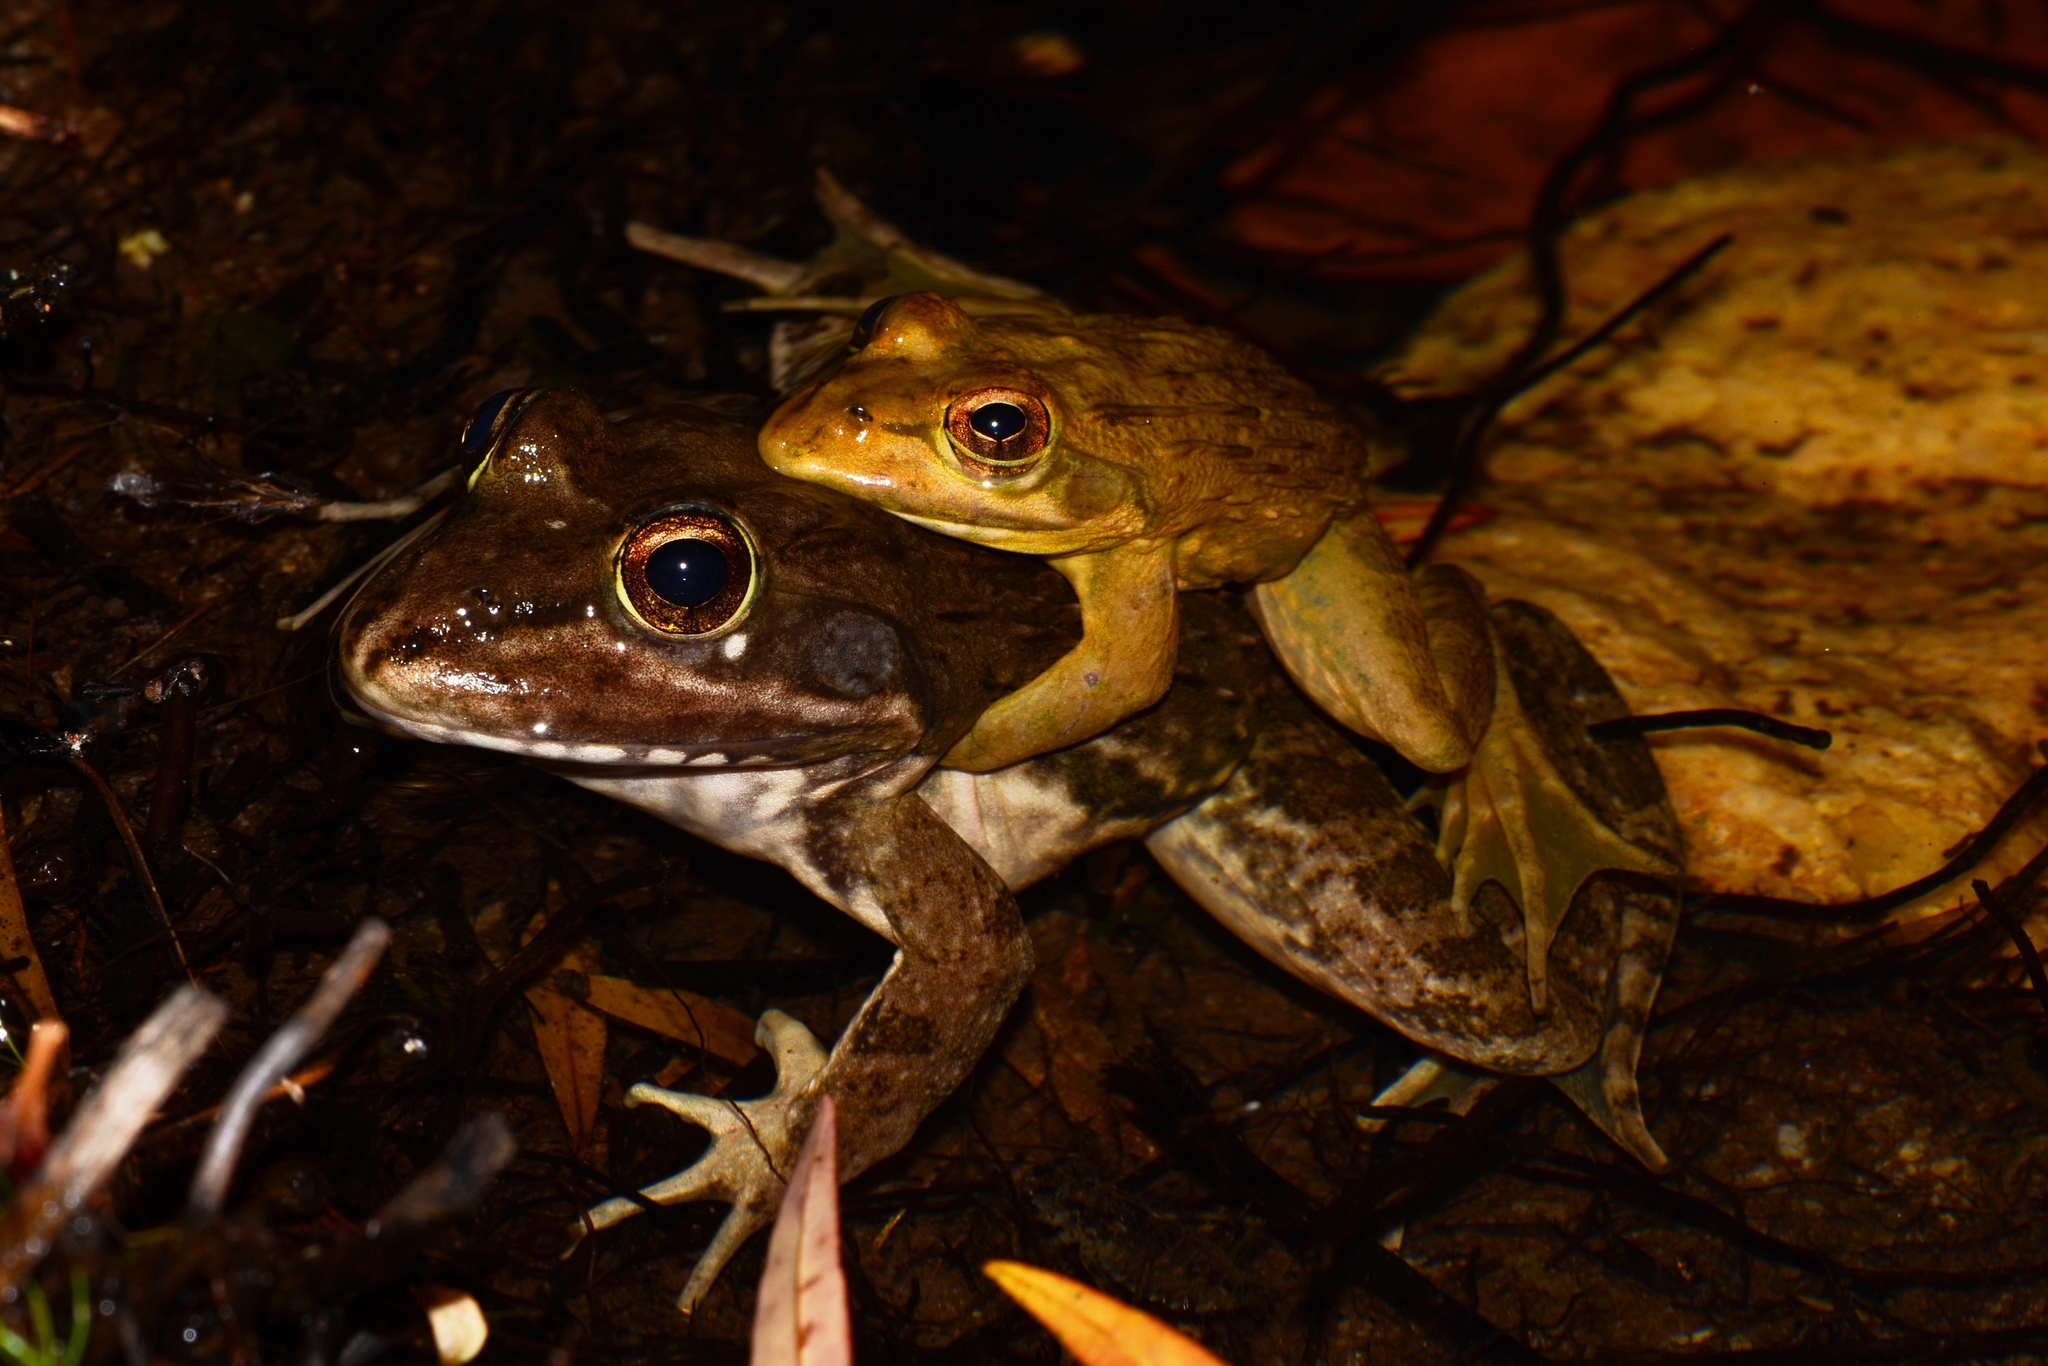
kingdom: Animalia
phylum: Chordata
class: Amphibia
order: Anura
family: Pyxicephalidae
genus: Amietia
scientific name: Amietia fuscigula
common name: Cape rana
